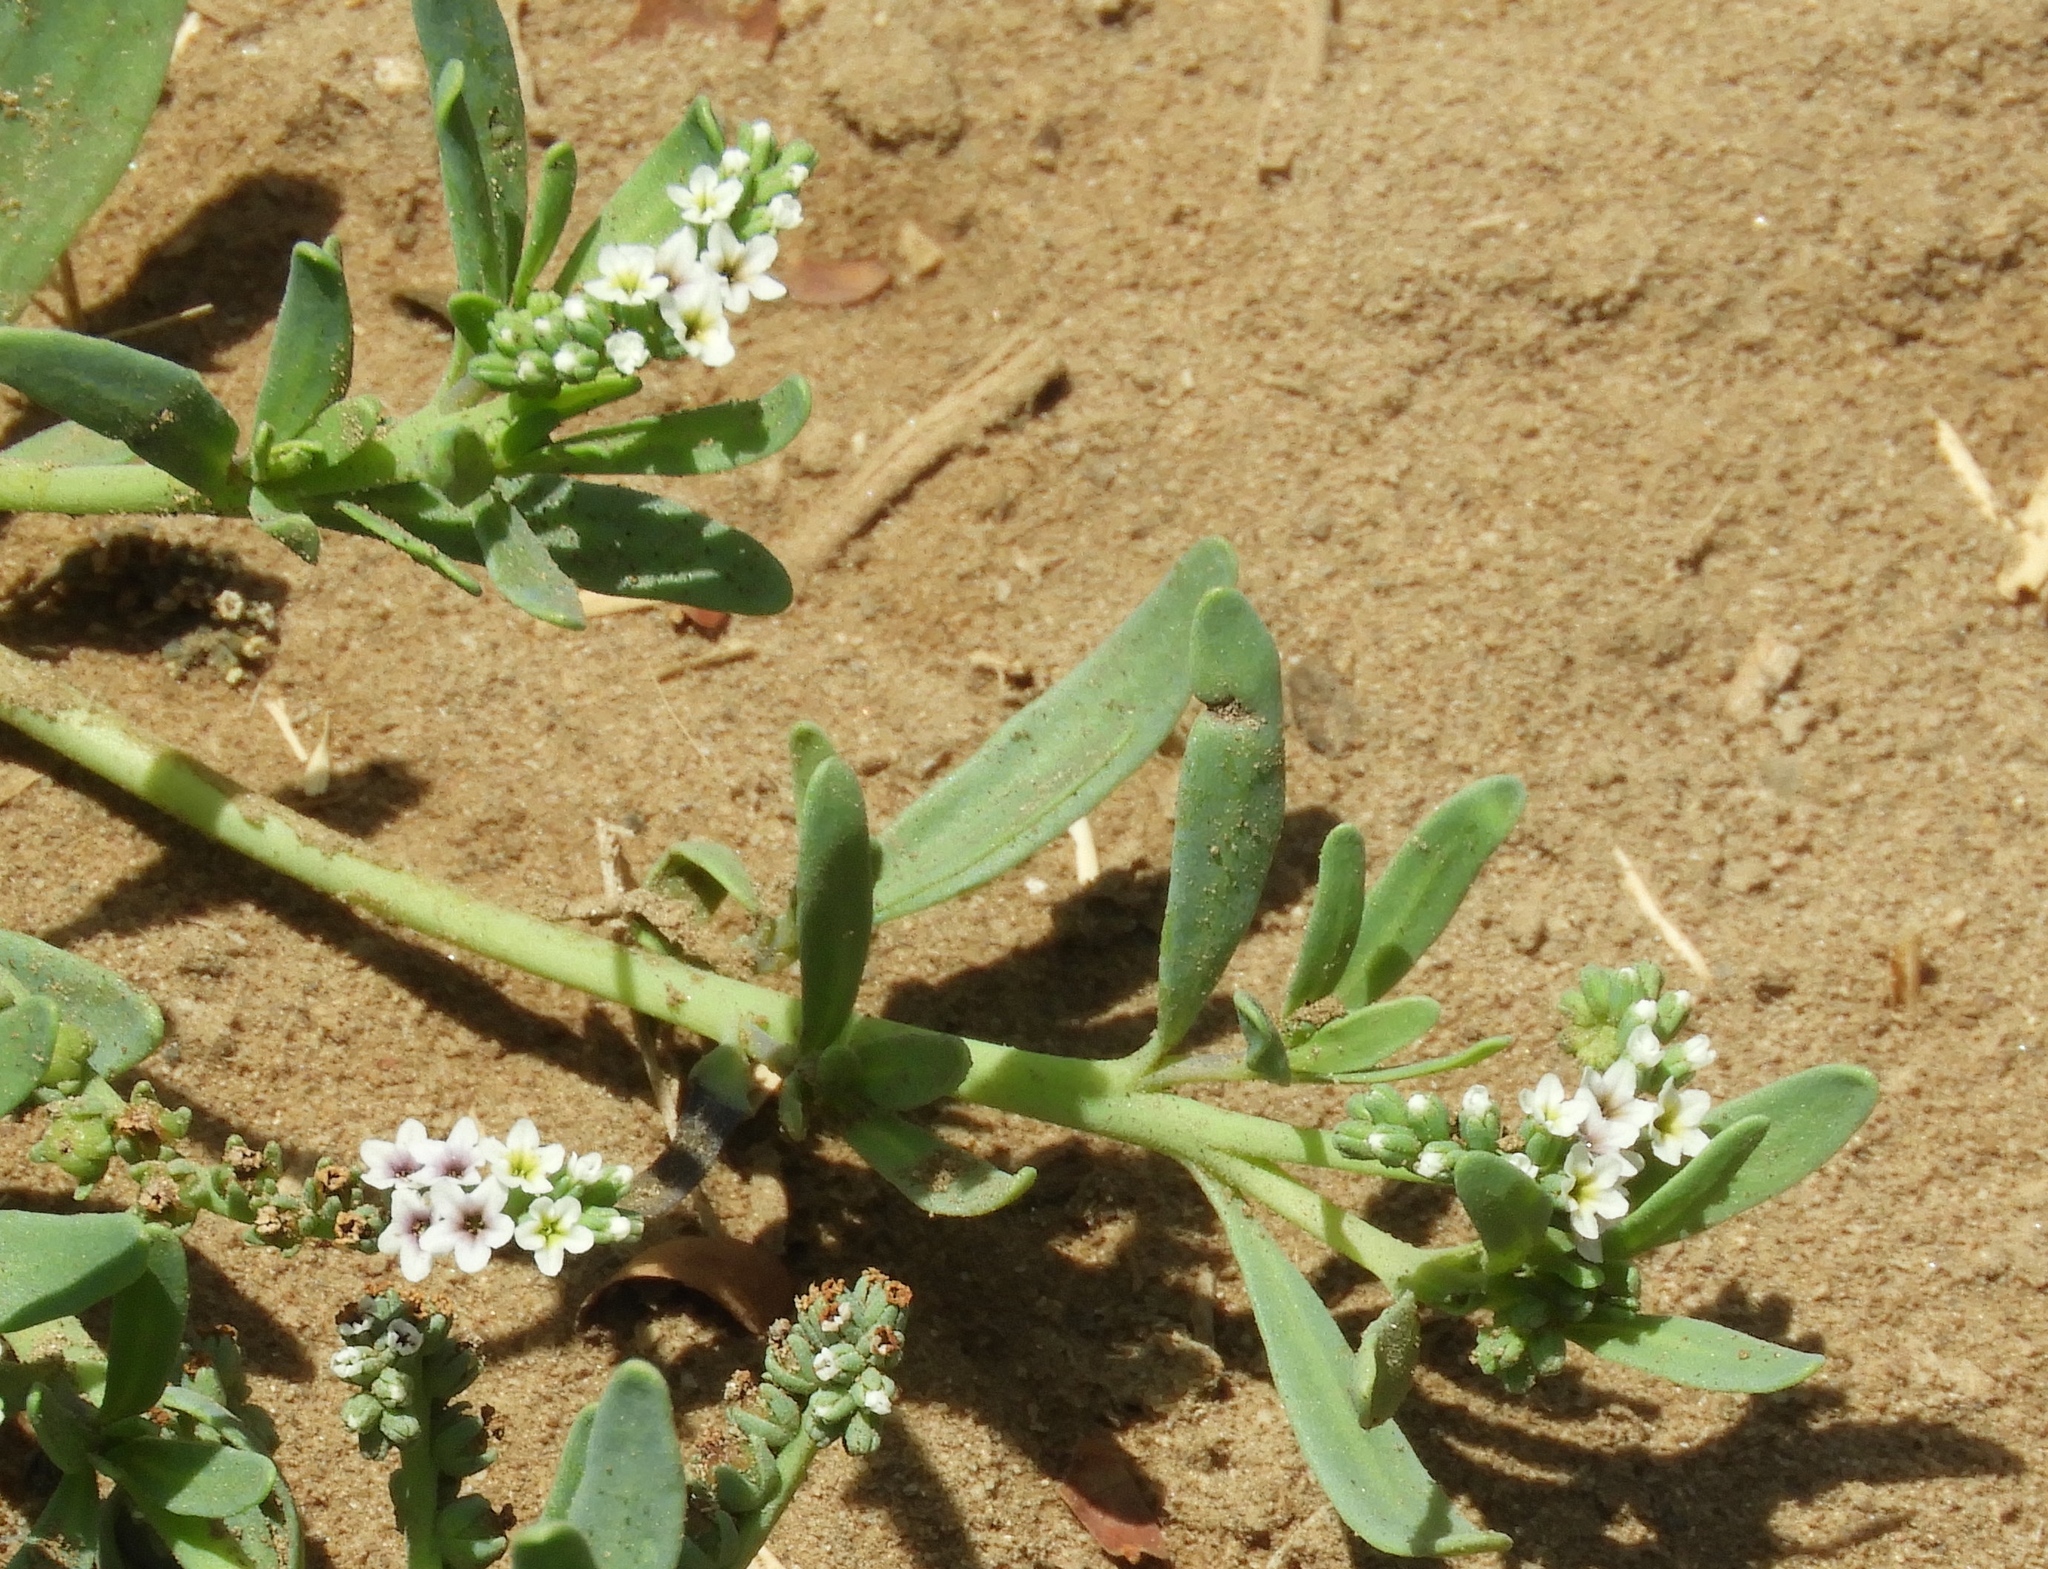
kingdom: Plantae
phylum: Tracheophyta
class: Magnoliopsida
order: Boraginales
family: Heliotropiaceae
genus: Heliotropium
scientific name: Heliotropium curassavicum
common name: Seaside heliotrope
